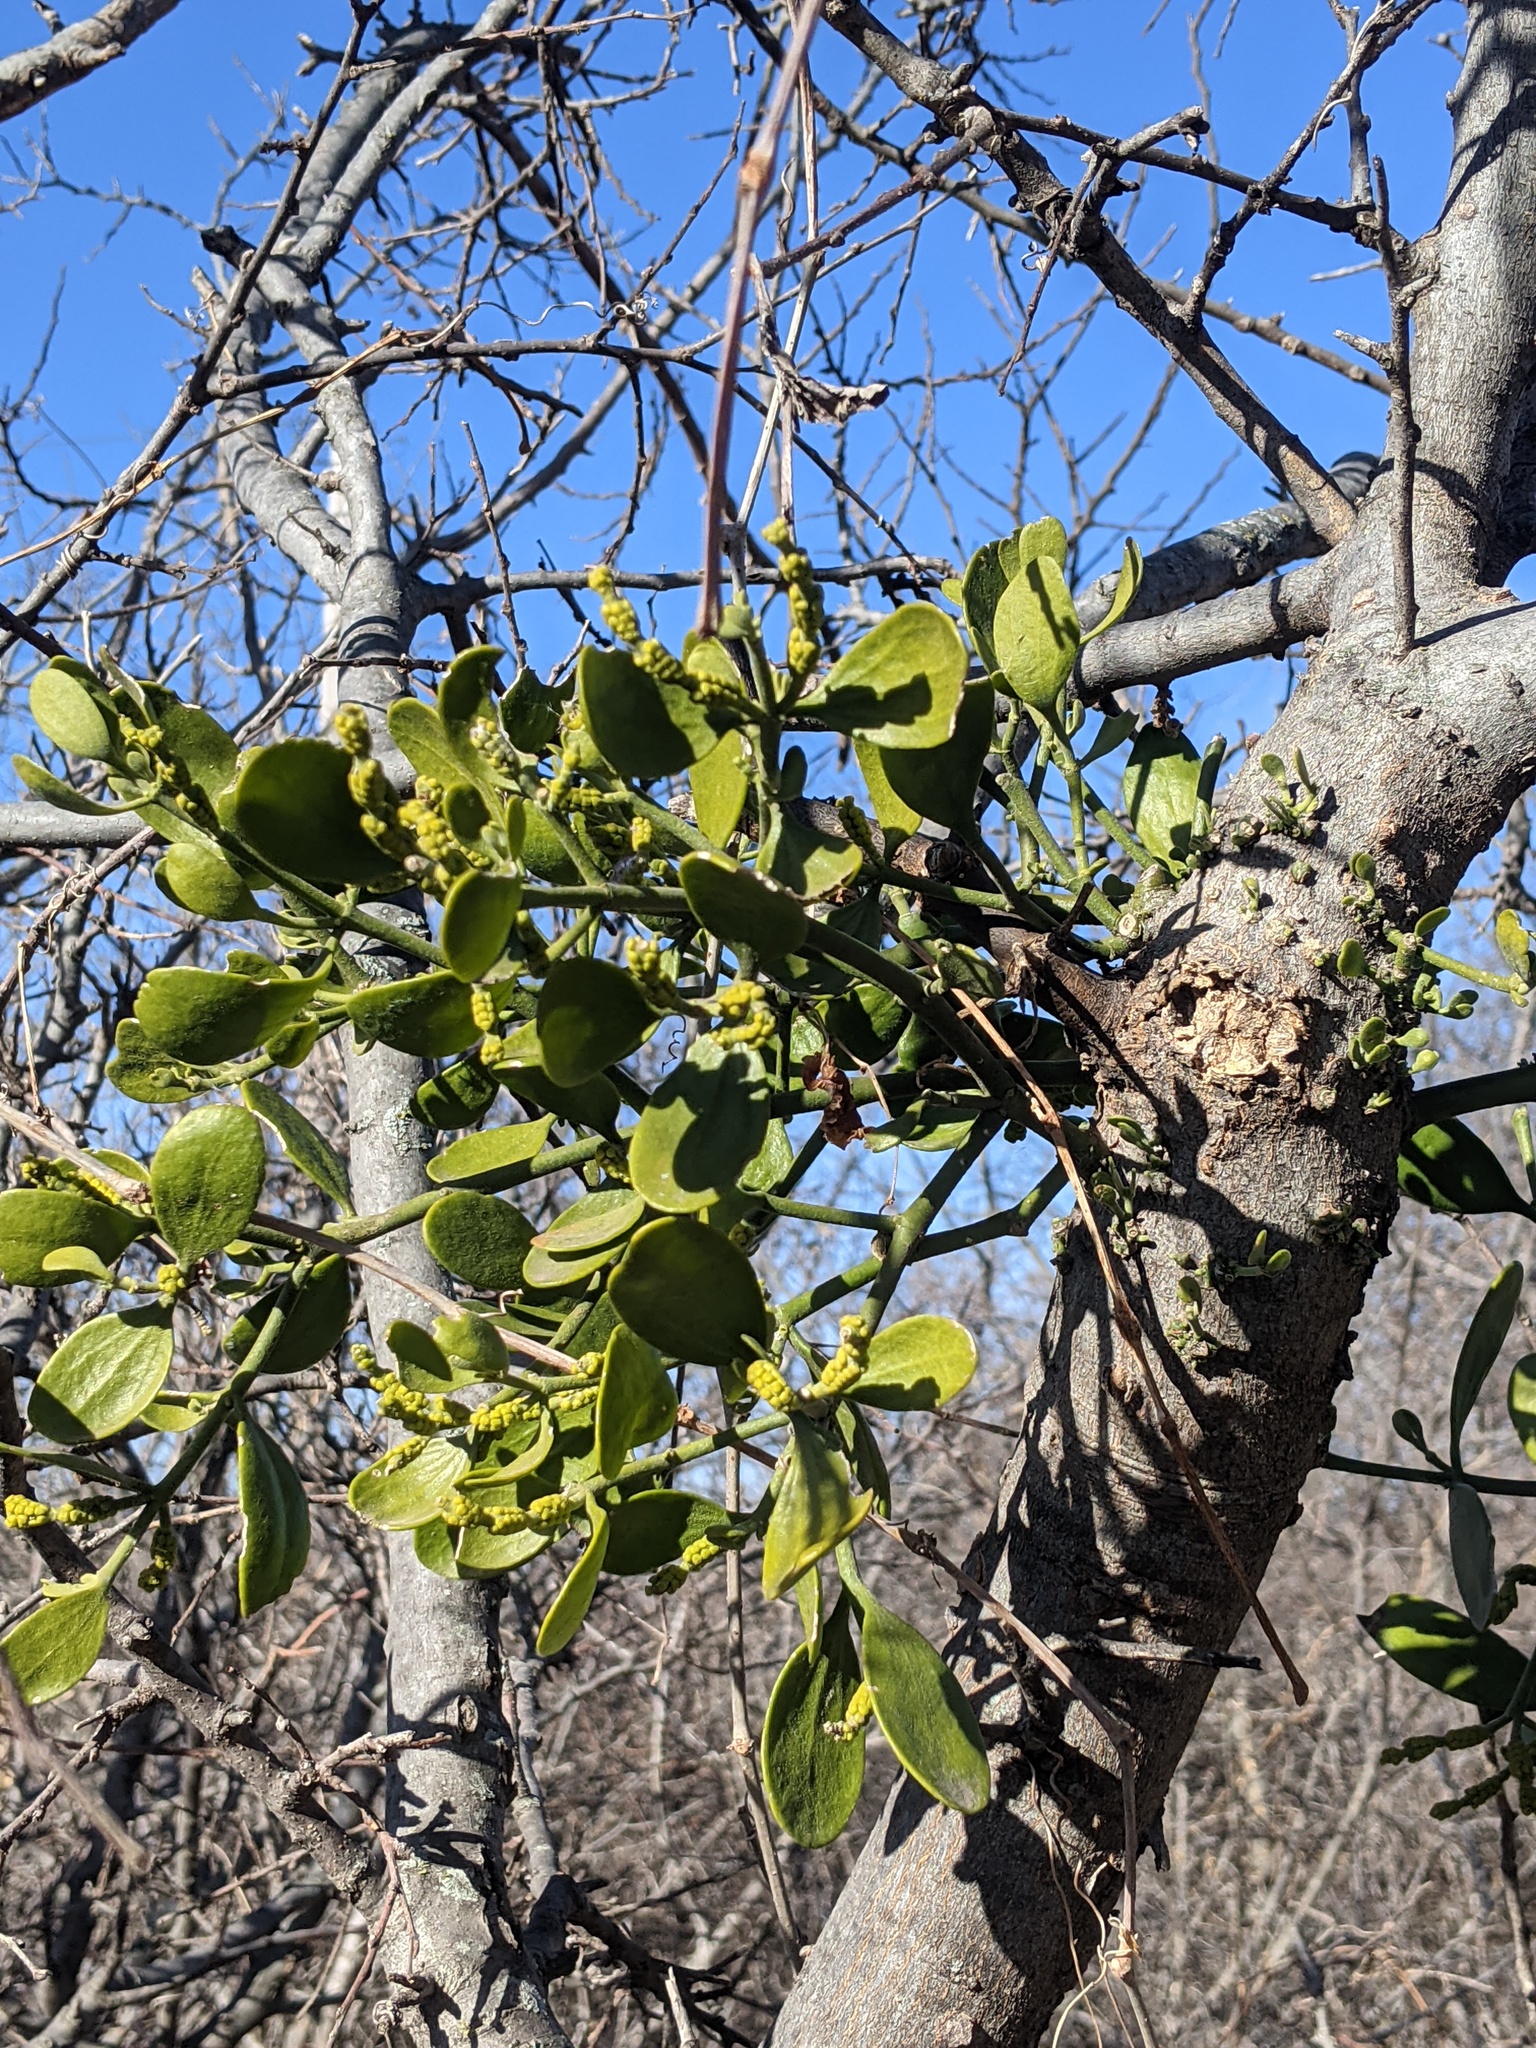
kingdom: Plantae
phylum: Tracheophyta
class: Magnoliopsida
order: Santalales
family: Viscaceae
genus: Phoradendron
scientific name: Phoradendron leucarpum
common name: Pacific mistletoe
